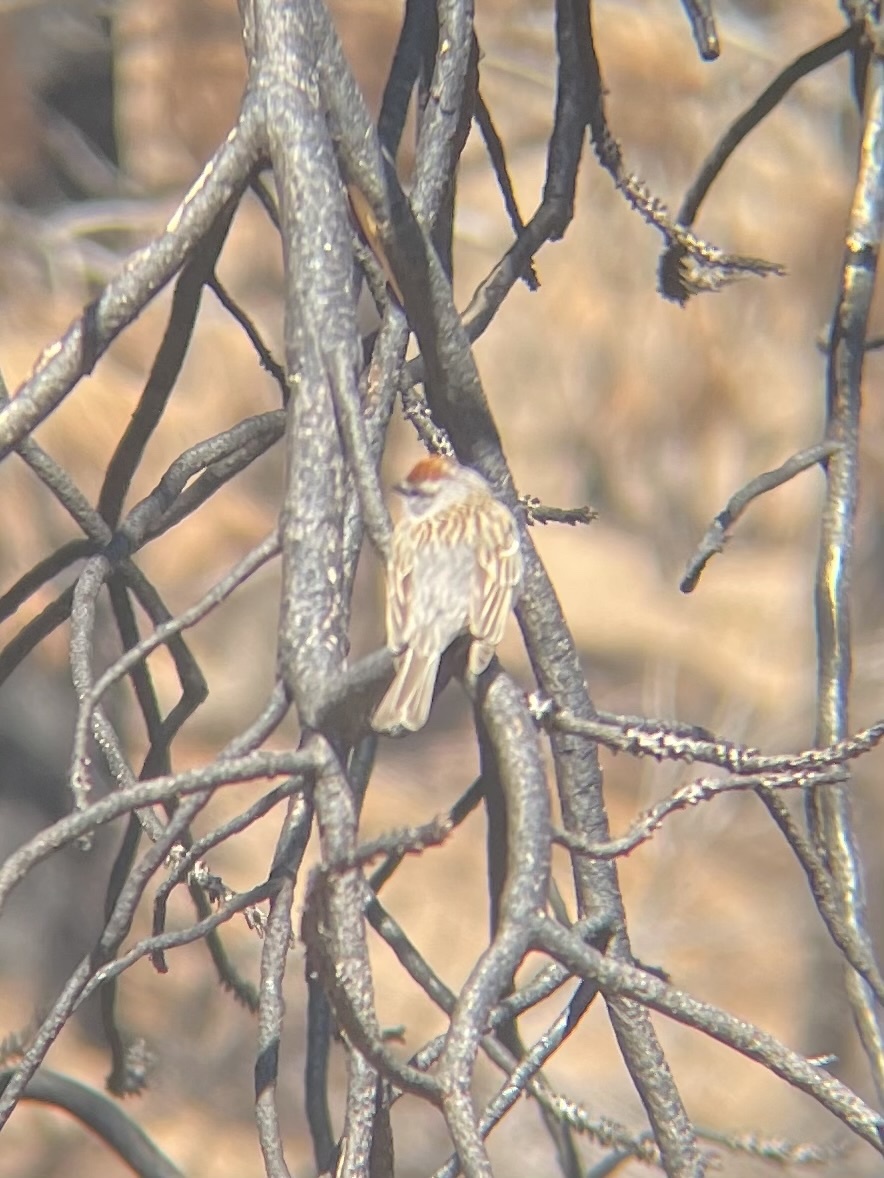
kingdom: Animalia
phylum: Chordata
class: Aves
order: Passeriformes
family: Passerellidae
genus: Spizella
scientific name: Spizella passerina
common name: Chipping sparrow
